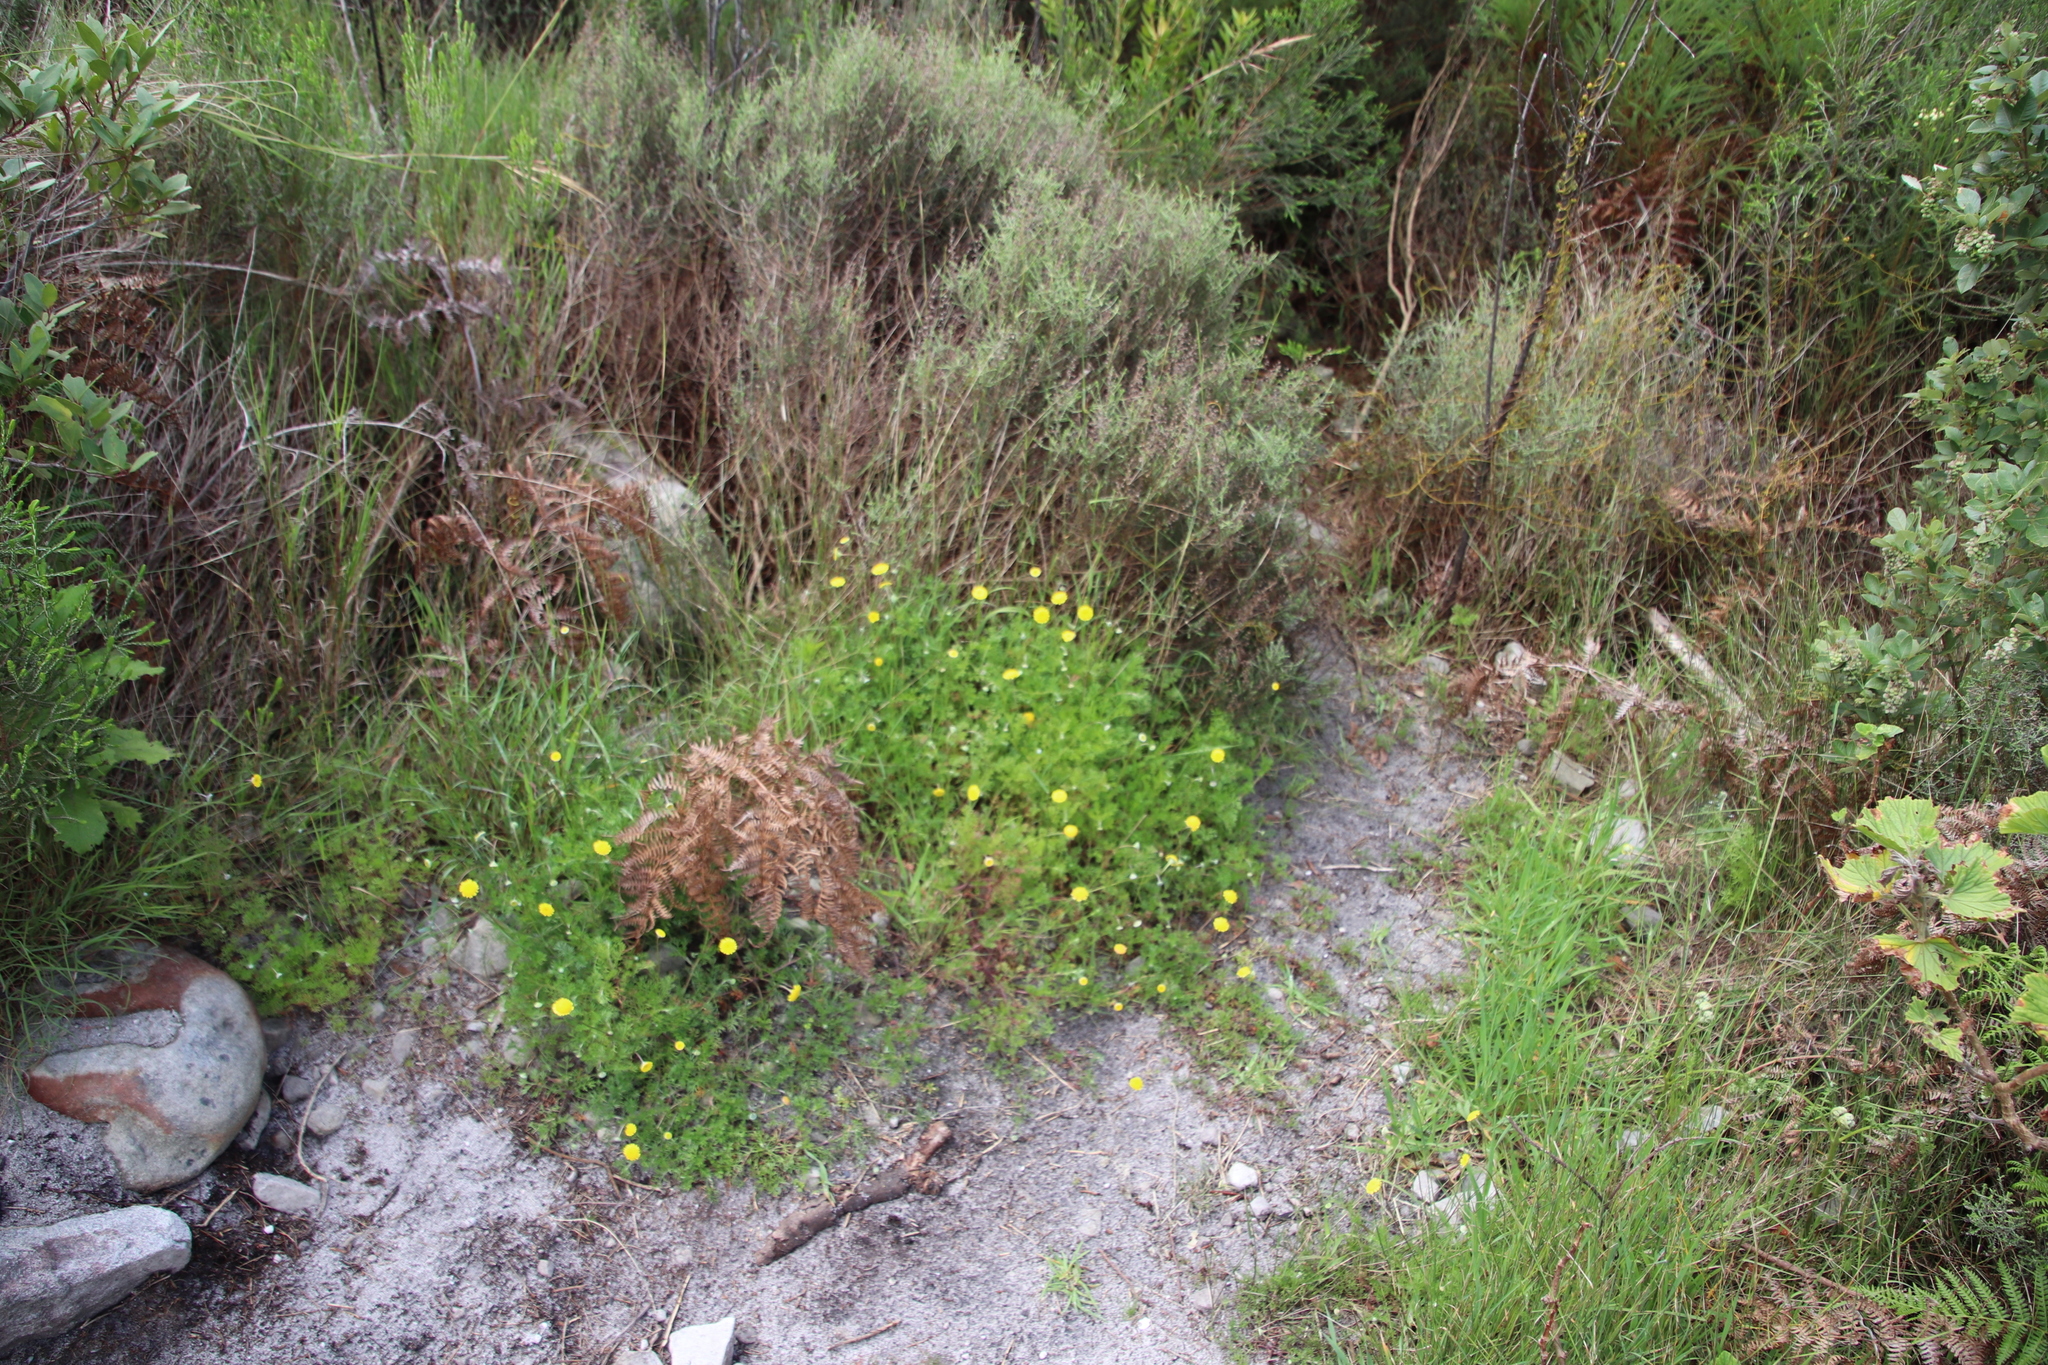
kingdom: Plantae
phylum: Tracheophyta
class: Magnoliopsida
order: Asterales
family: Asteraceae
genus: Cotula
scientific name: Cotula pruinosa
